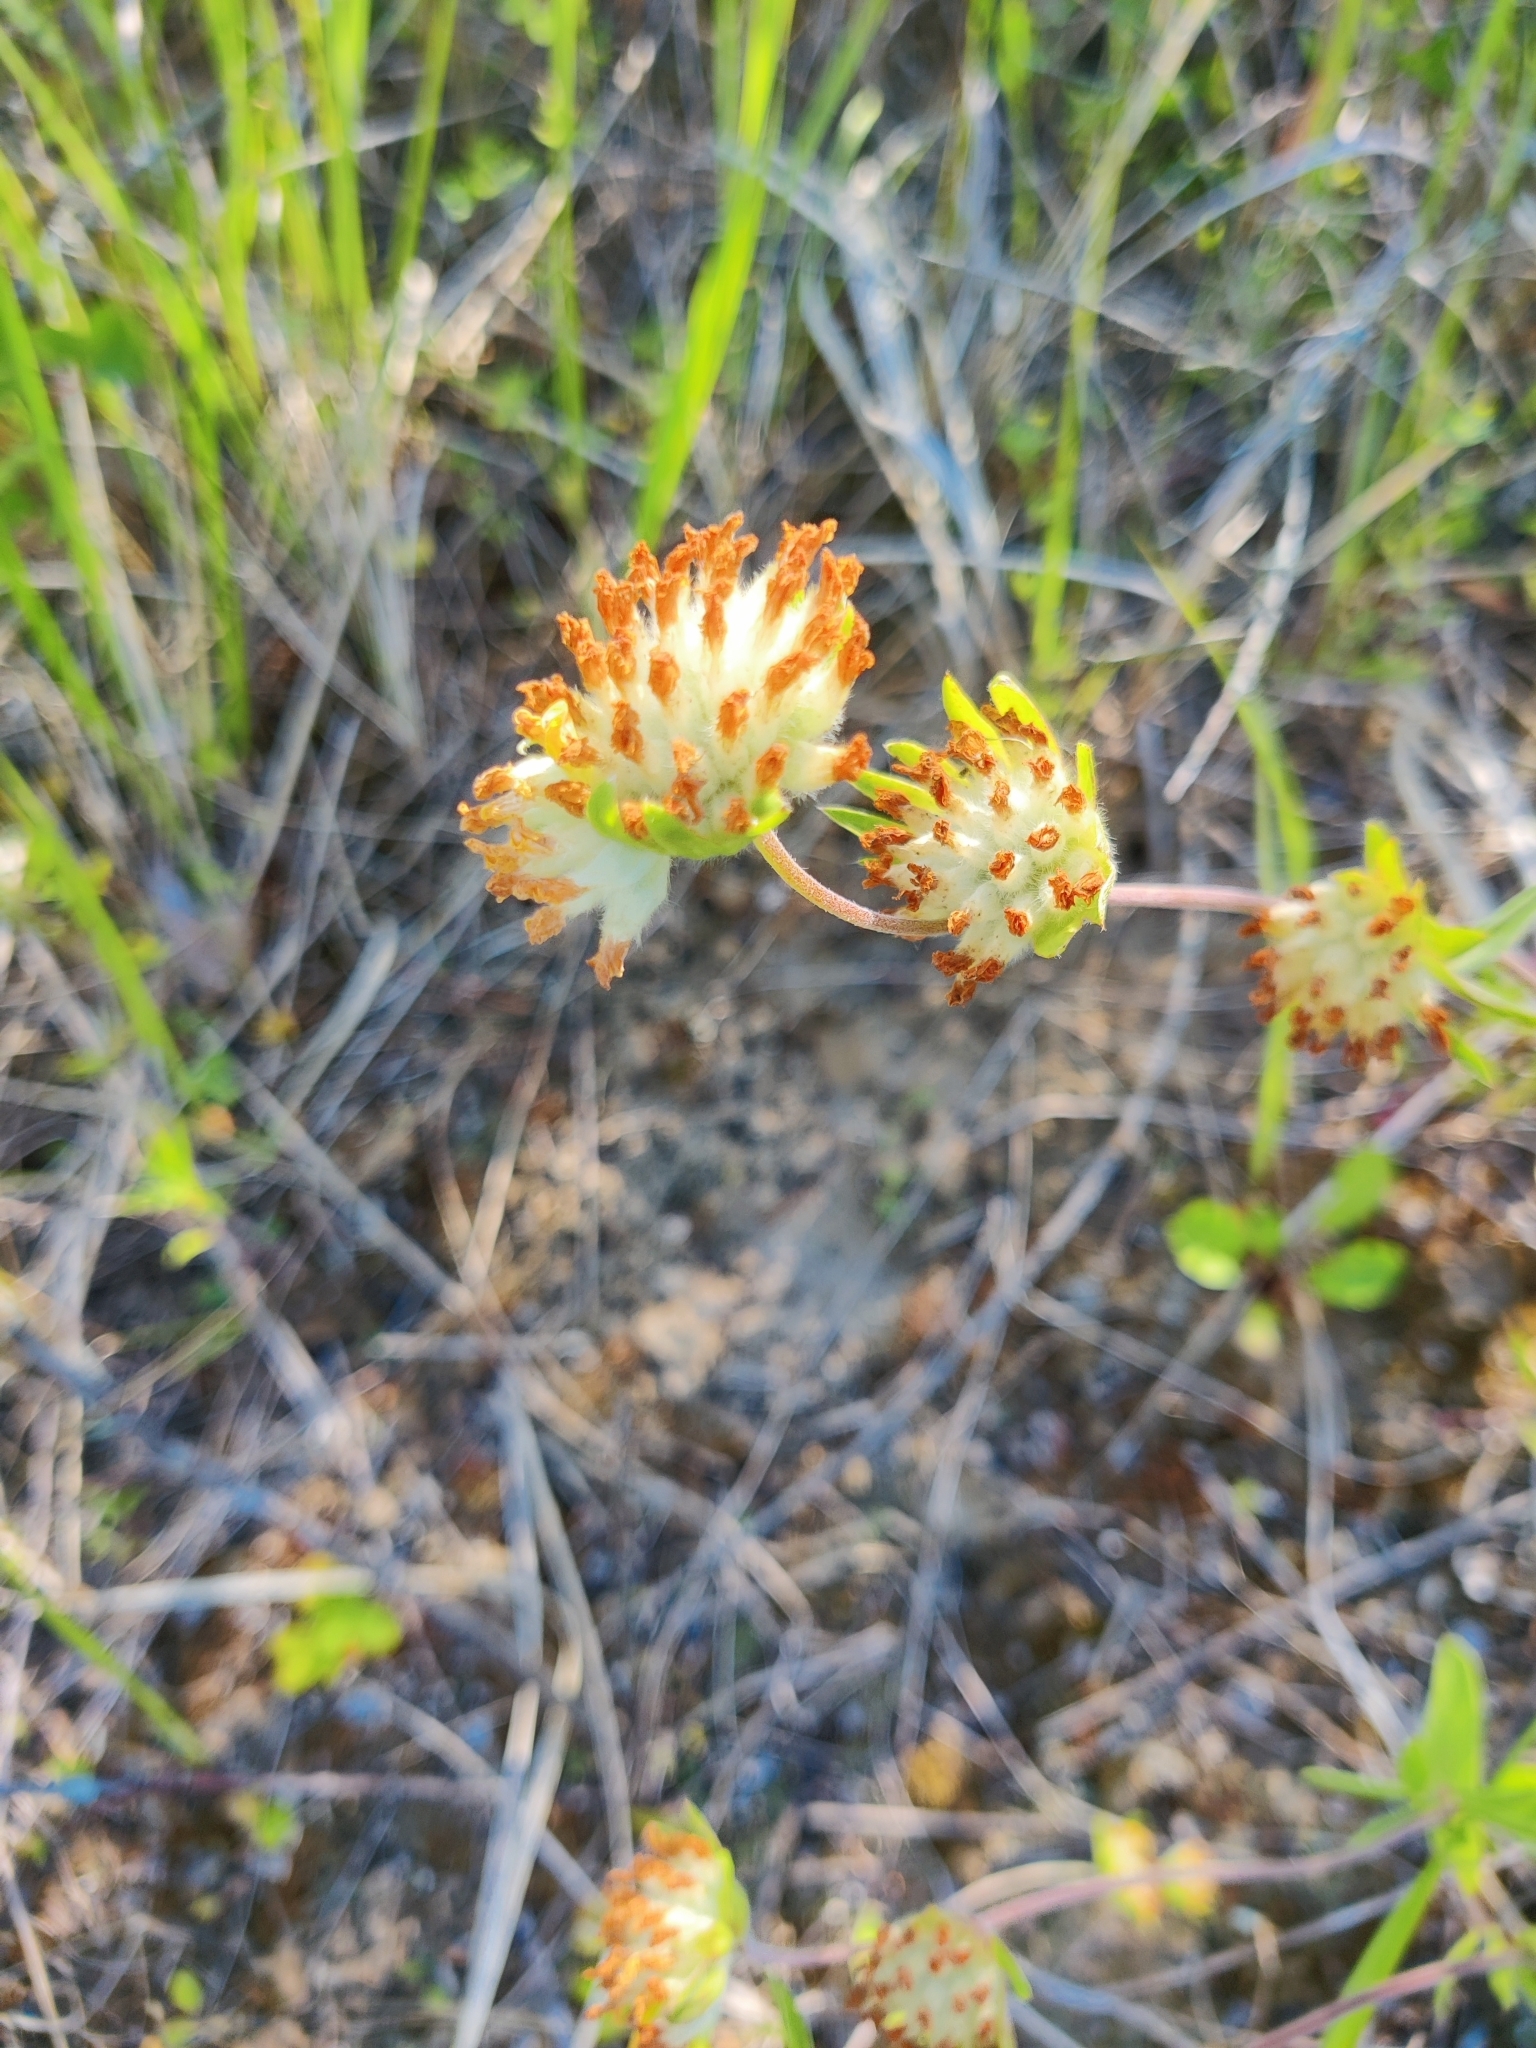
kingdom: Plantae
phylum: Tracheophyta
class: Magnoliopsida
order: Fabales
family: Fabaceae
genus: Anthyllis
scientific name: Anthyllis vulneraria
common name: Kidney vetch
